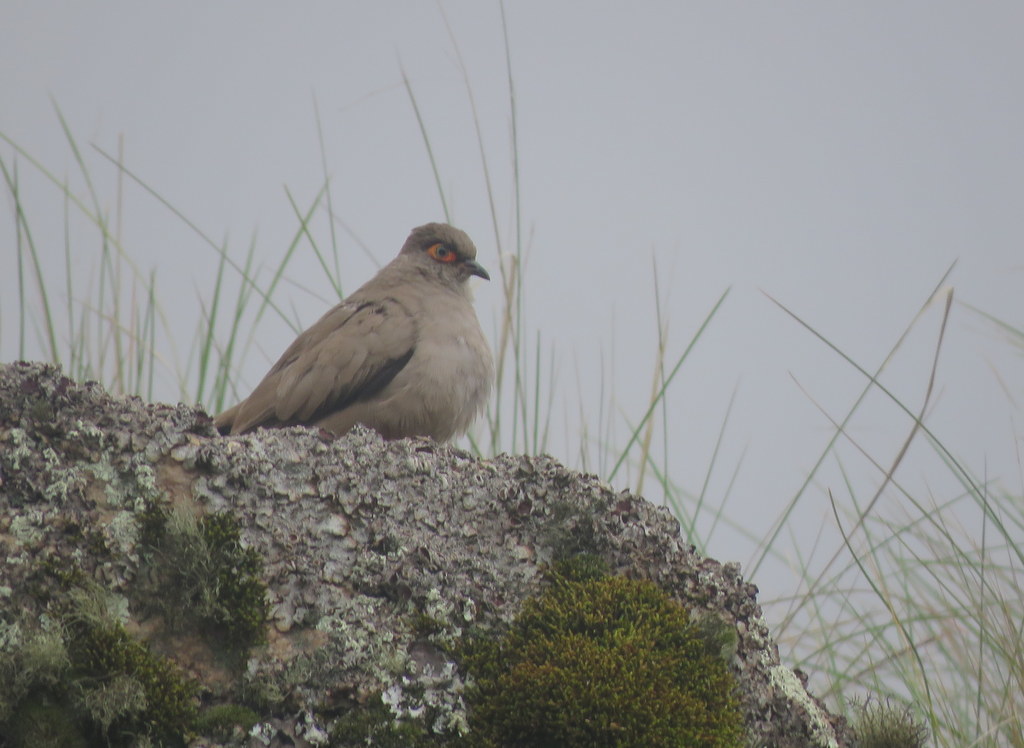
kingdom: Animalia
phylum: Chordata
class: Aves
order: Columbiformes
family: Columbidae
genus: Metriopelia
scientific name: Metriopelia morenoi
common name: Moreno's ground dove
